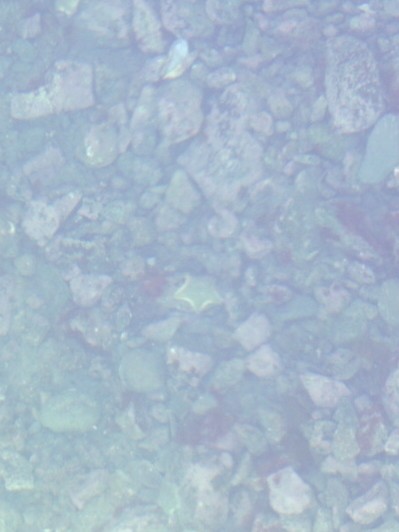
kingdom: Animalia
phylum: Echinodermata
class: Asteroidea
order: Valvatida
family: Asterinidae
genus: Patiriella
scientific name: Patiriella regularis
